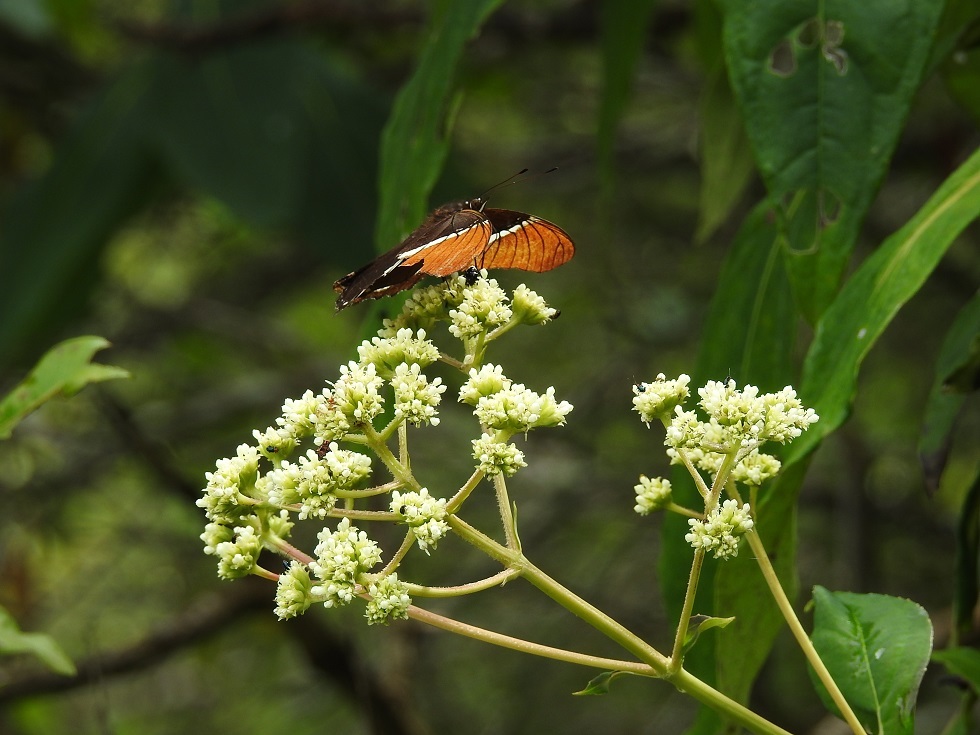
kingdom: Animalia
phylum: Arthropoda
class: Insecta
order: Lepidoptera
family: Nymphalidae
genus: Siproeta
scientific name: Siproeta epaphus
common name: Rusty-tipped page
